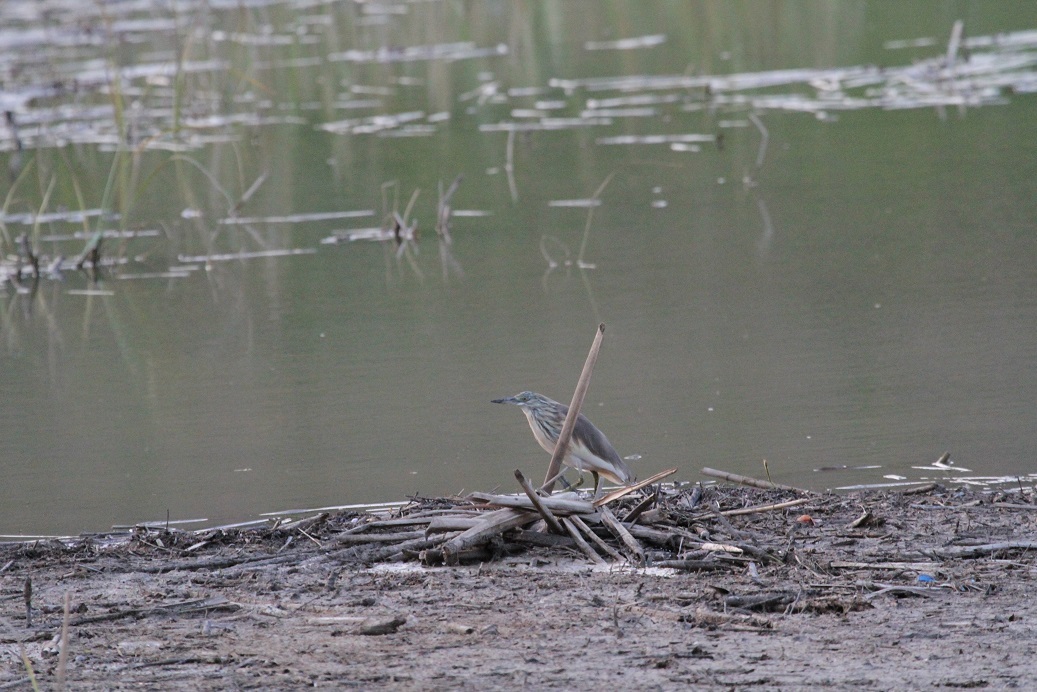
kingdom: Animalia
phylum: Chordata
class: Aves
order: Pelecaniformes
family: Ardeidae
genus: Ardeola
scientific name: Ardeola ralloides
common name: Squacco heron
